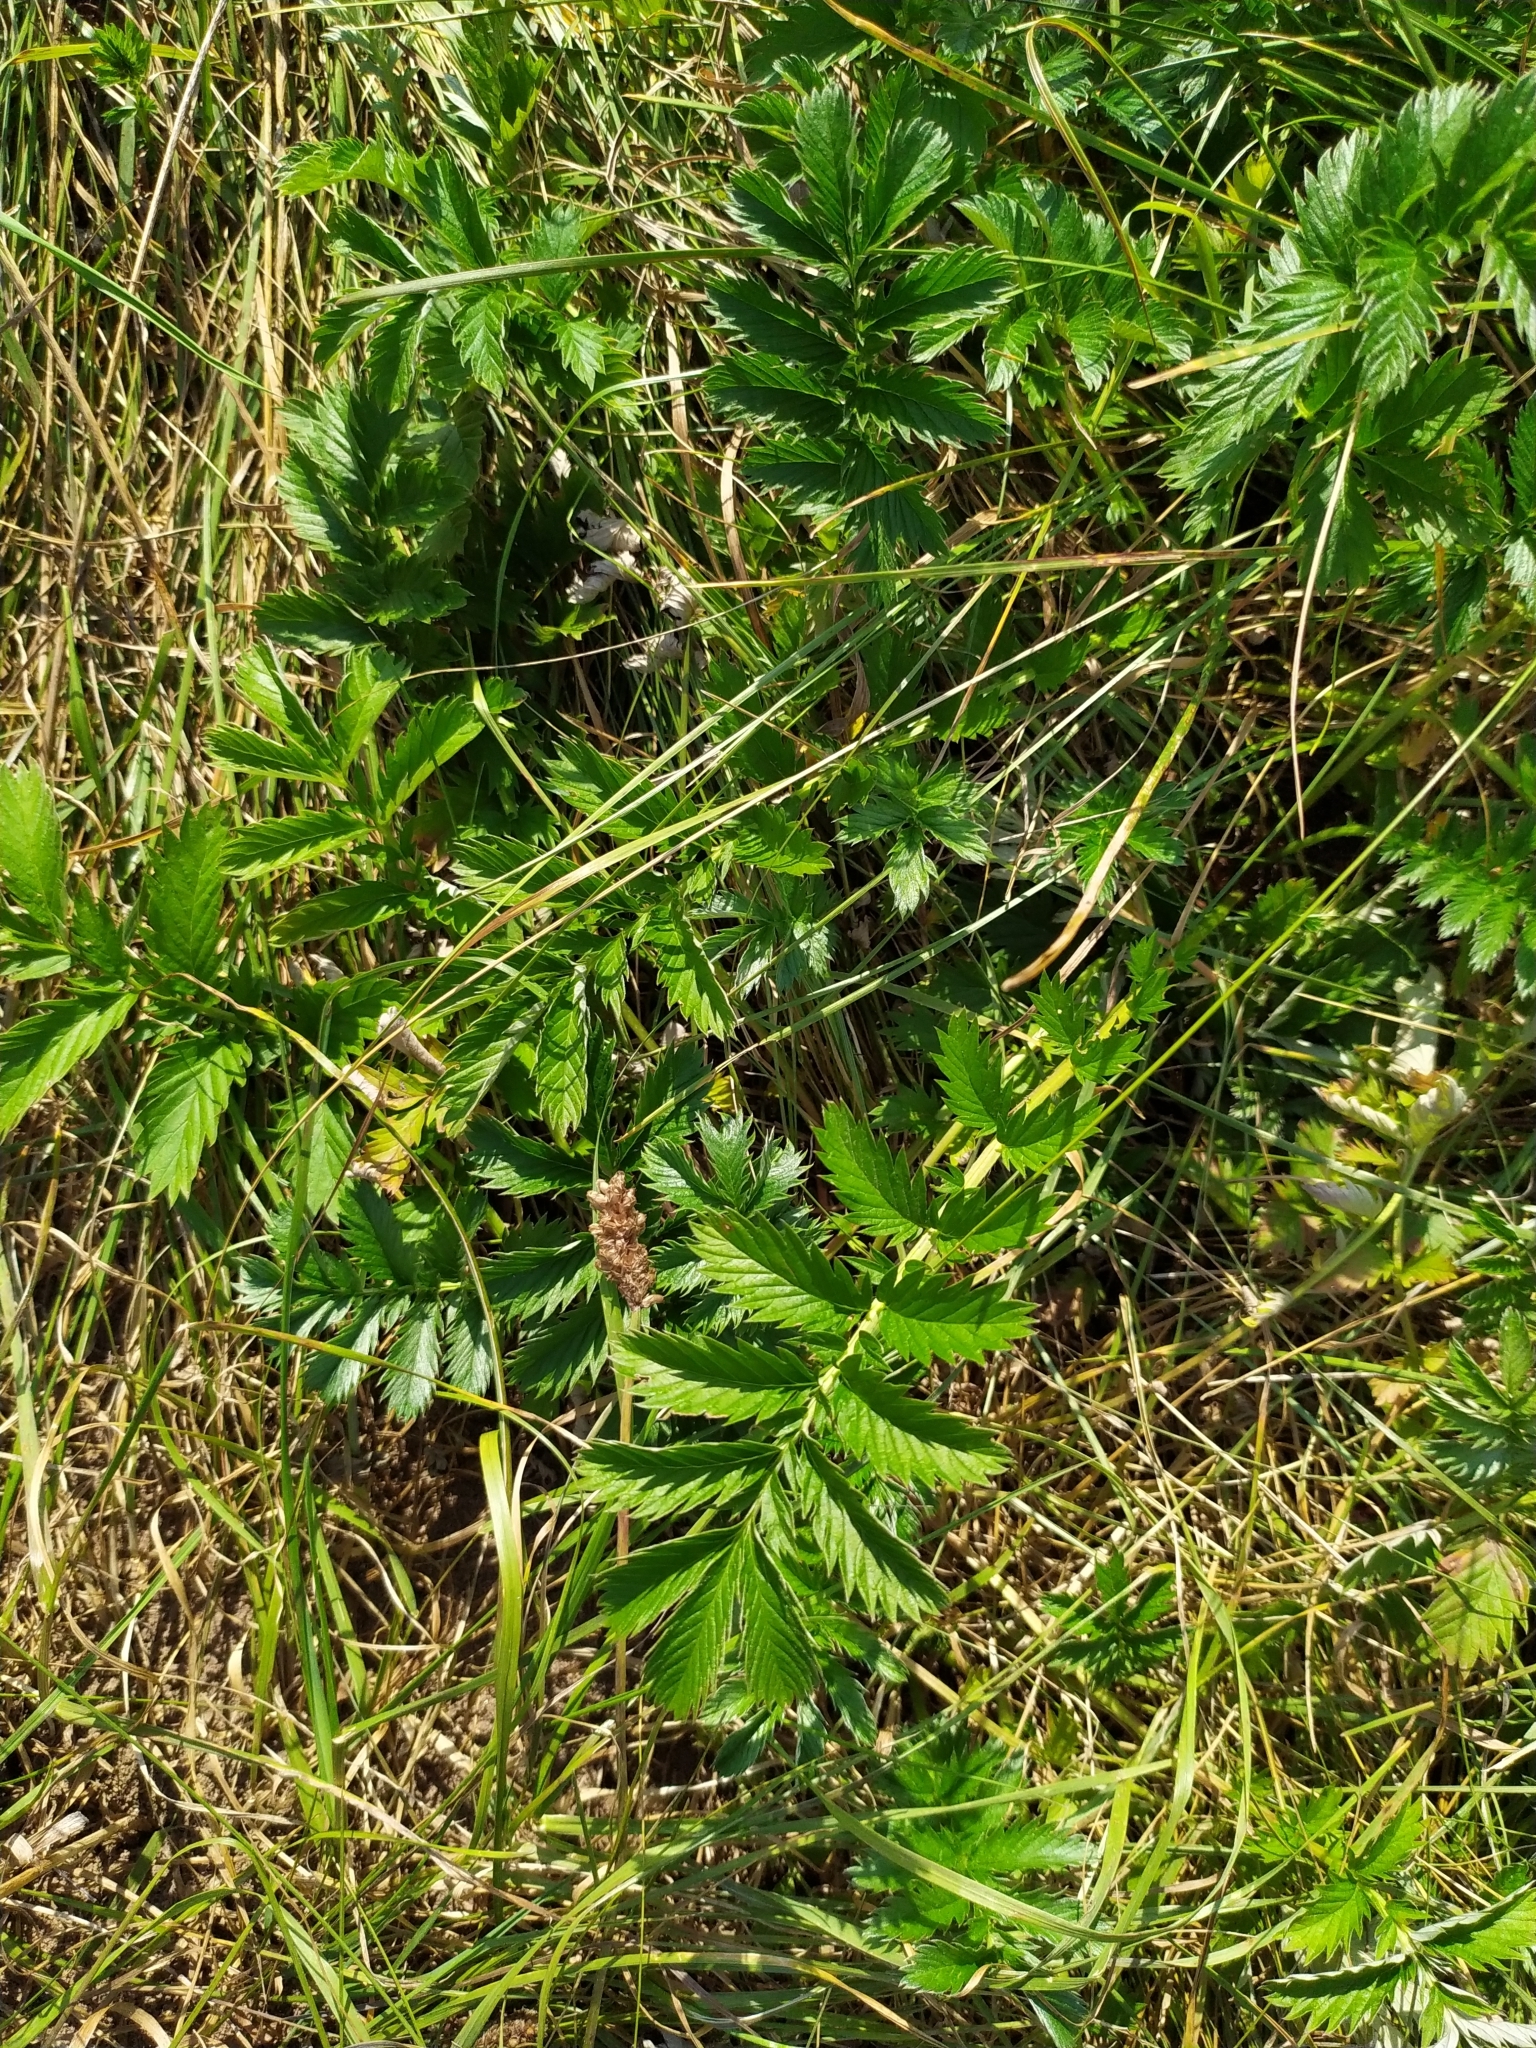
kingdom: Plantae
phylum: Tracheophyta
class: Magnoliopsida
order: Rosales
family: Rosaceae
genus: Argentina
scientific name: Argentina anserina
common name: Common silverweed
